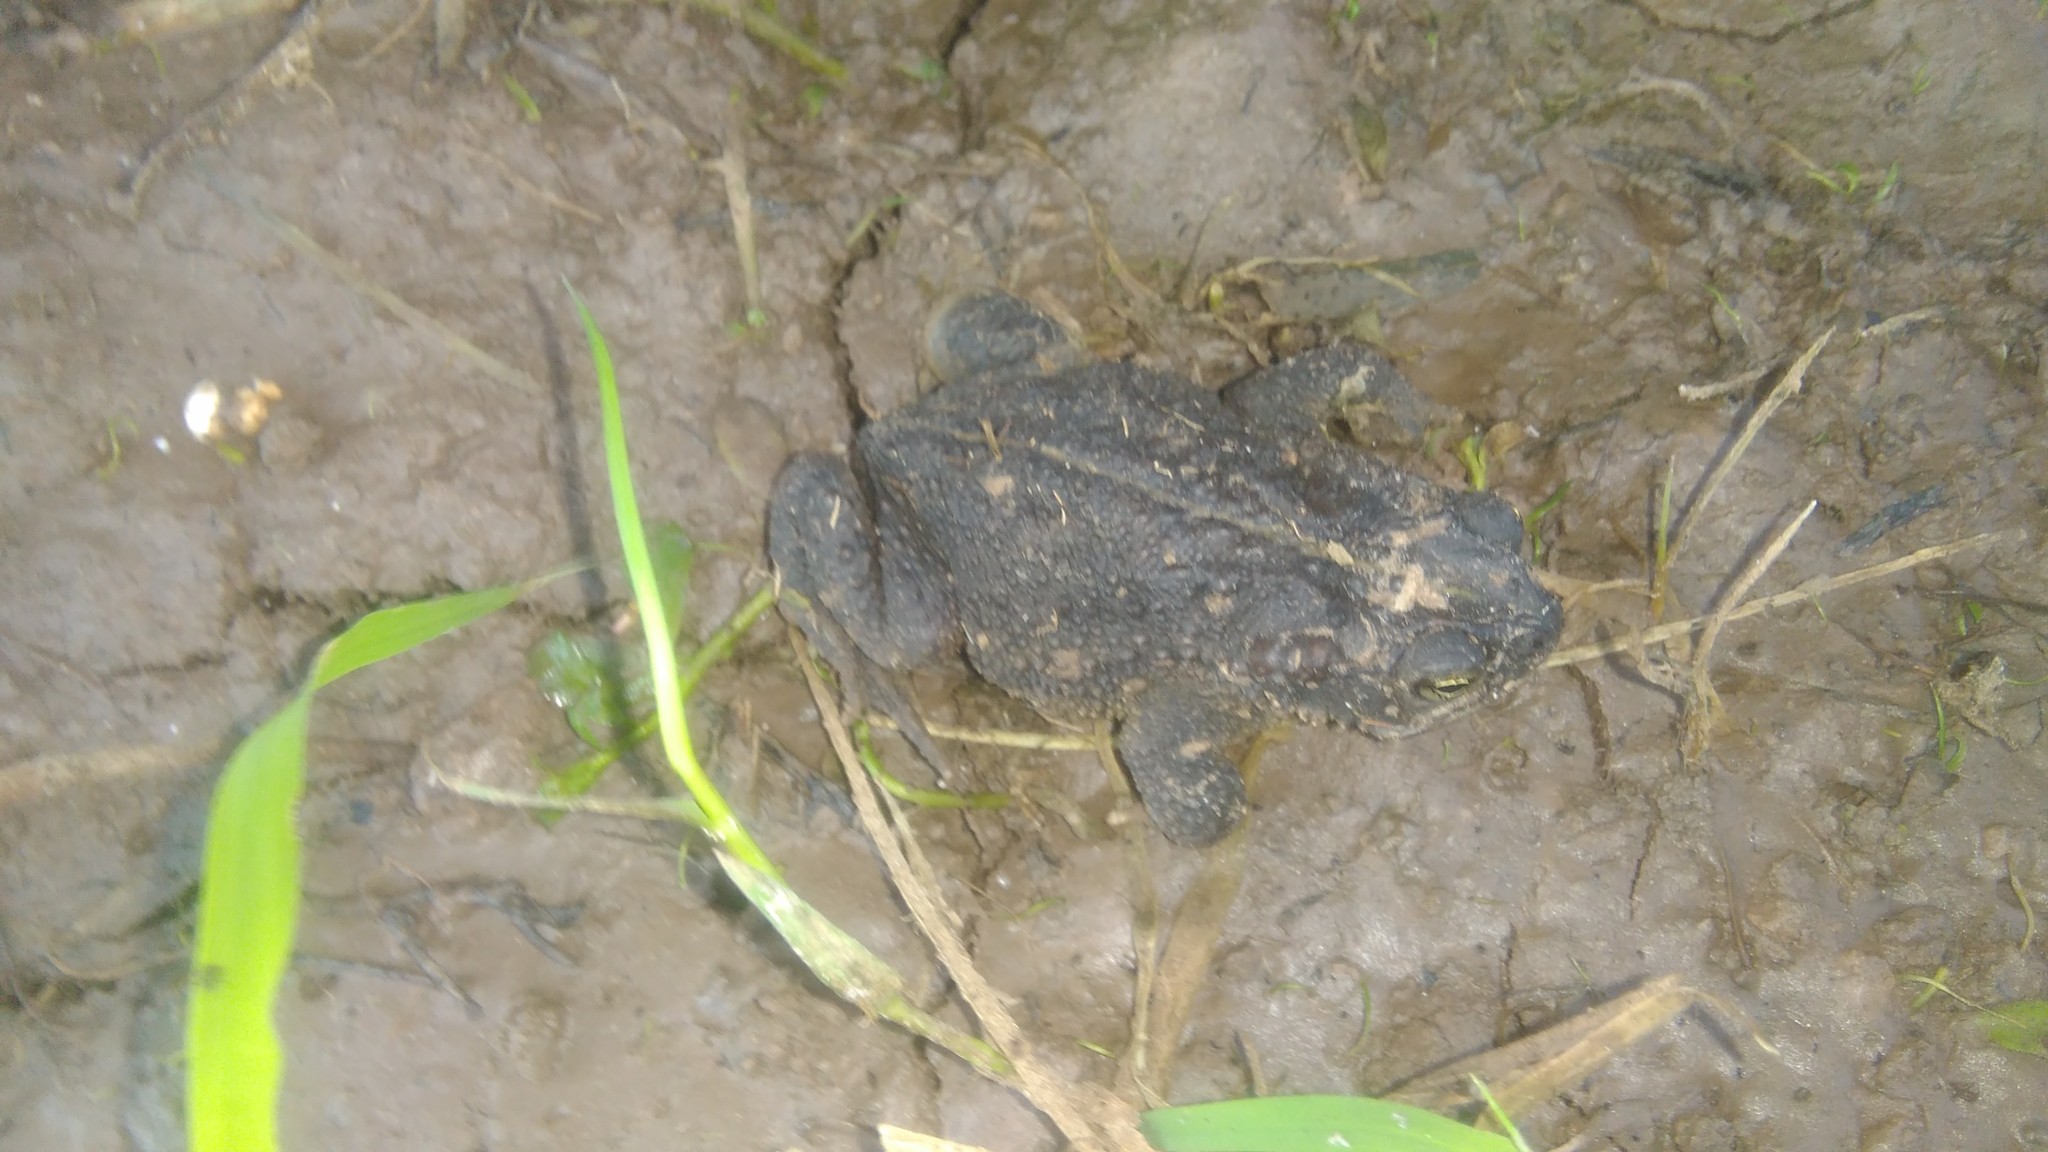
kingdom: Animalia
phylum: Chordata
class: Amphibia
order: Anura
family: Bufonidae
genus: Rhinella
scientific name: Rhinella dorbignyi
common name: D´orbigny’s toad
